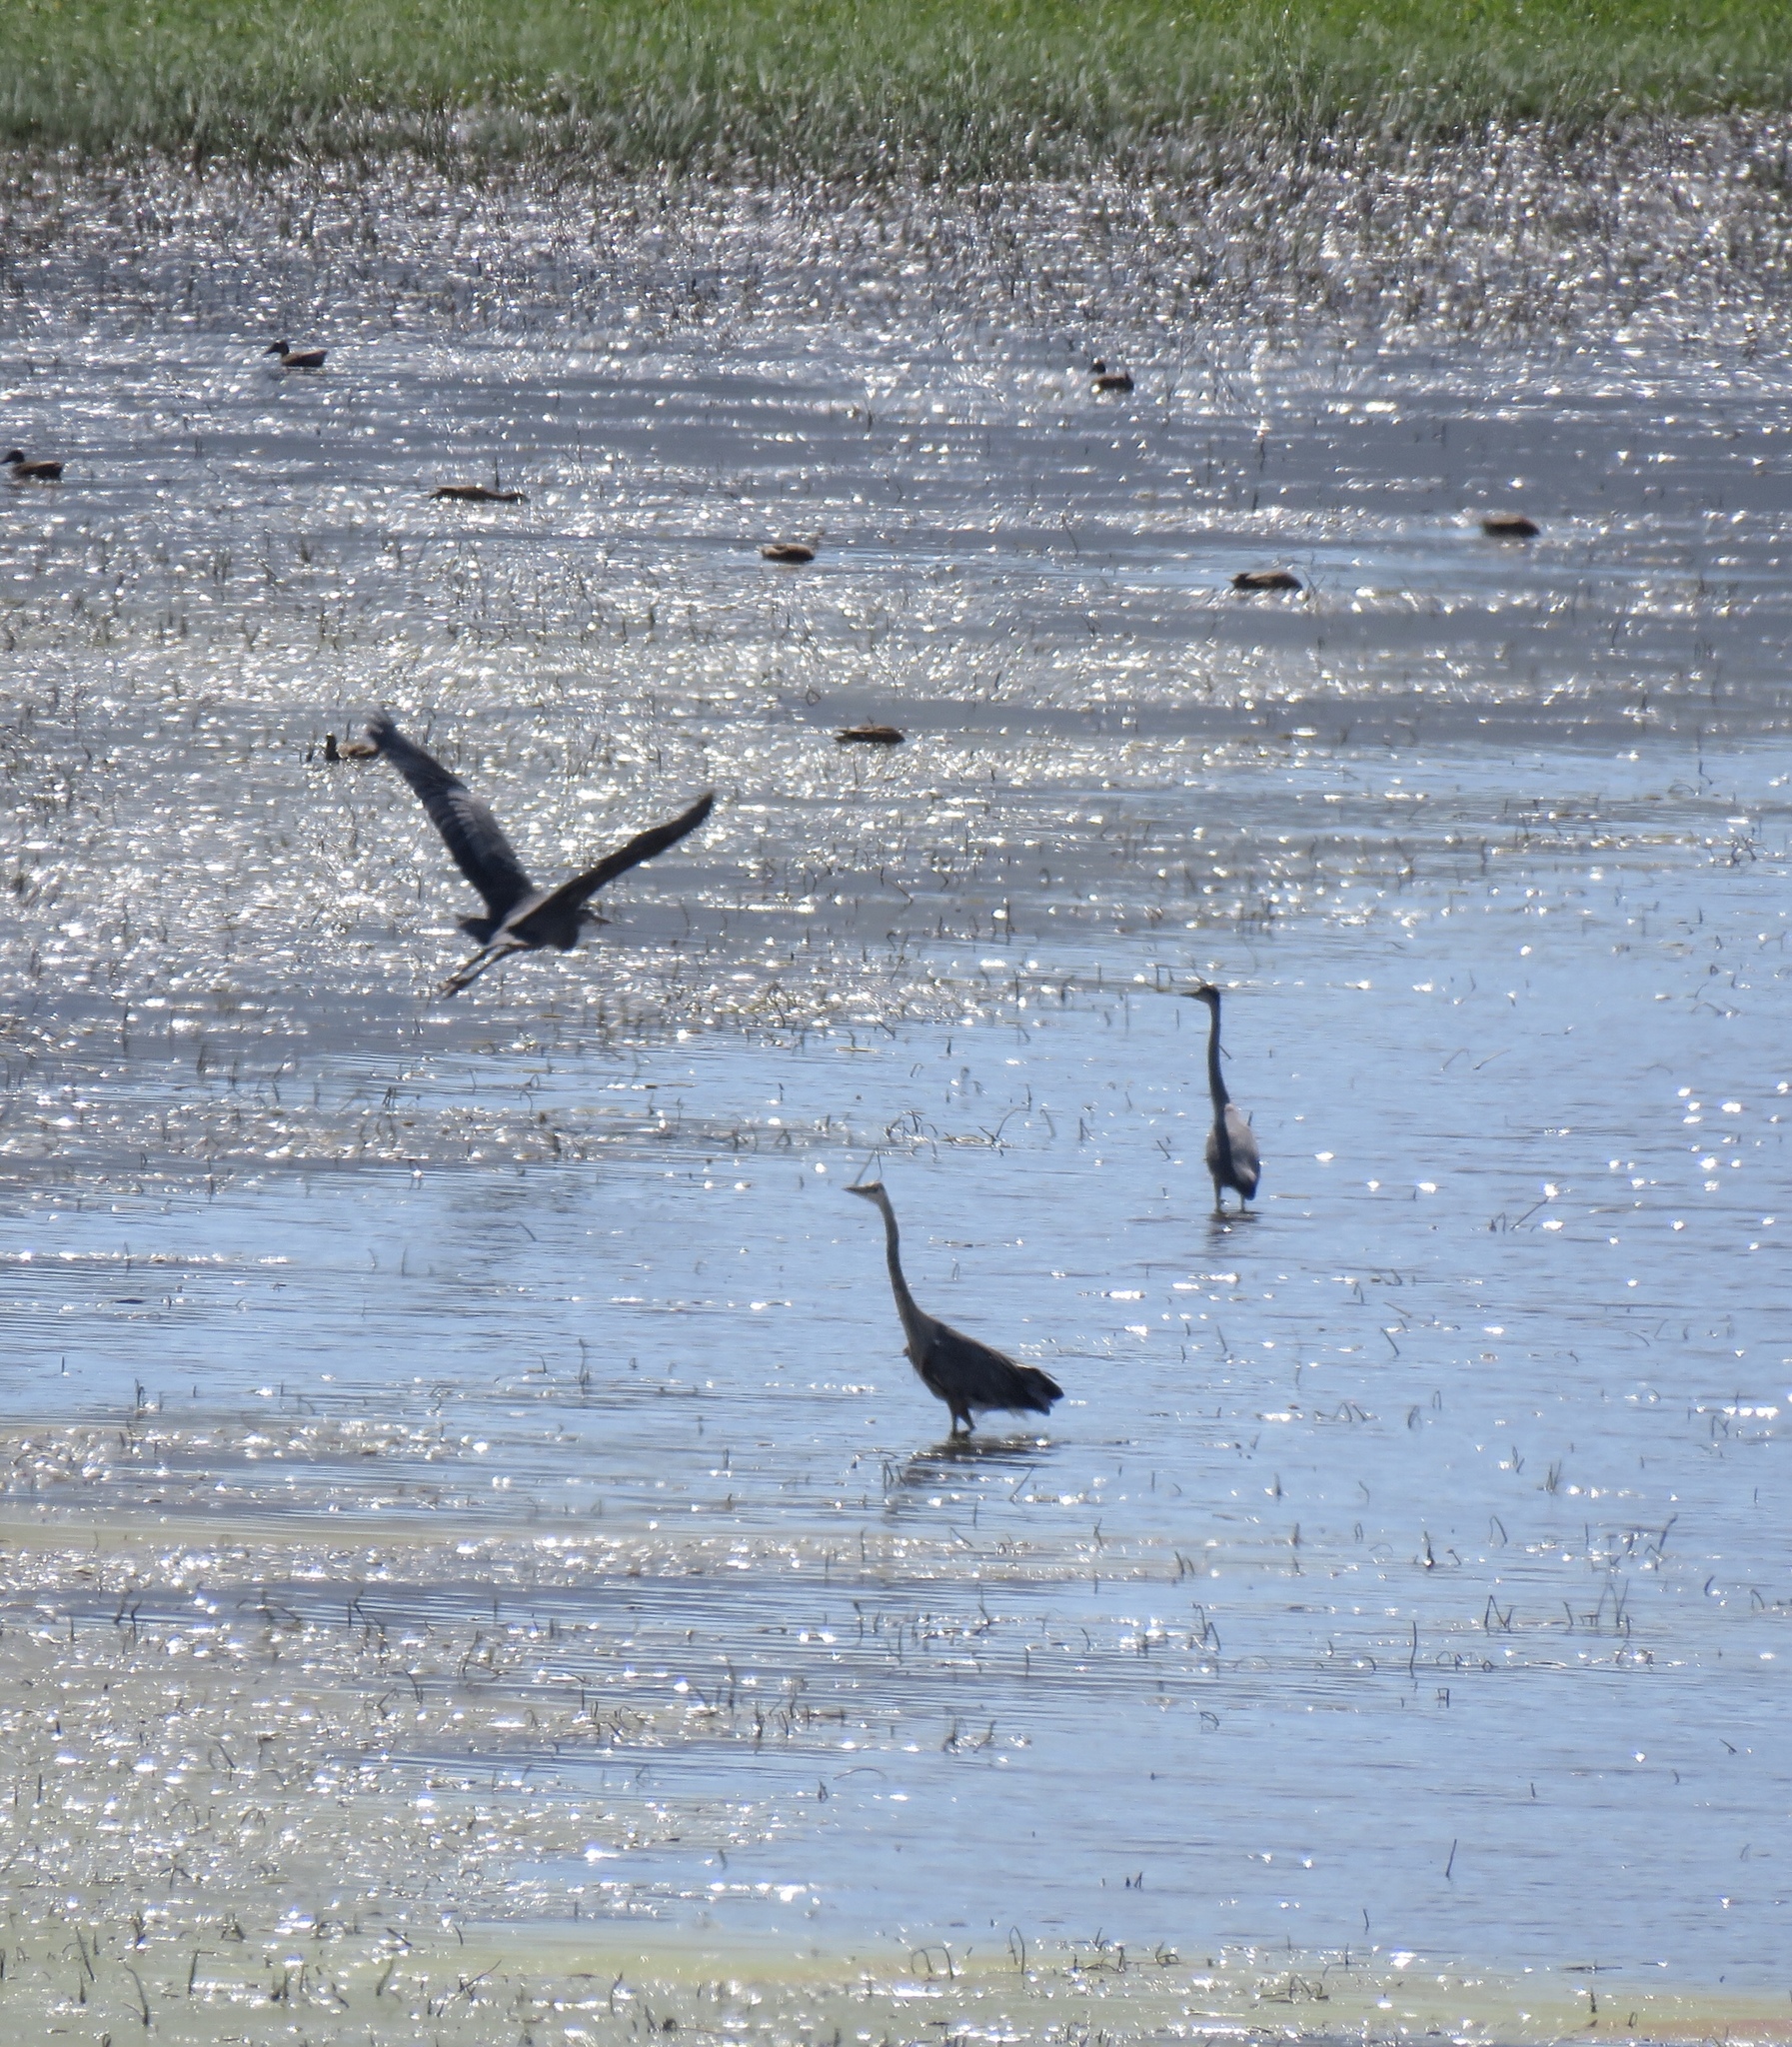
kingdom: Animalia
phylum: Chordata
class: Aves
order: Pelecaniformes
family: Ardeidae
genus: Ardea
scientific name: Ardea herodias
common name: Great blue heron
